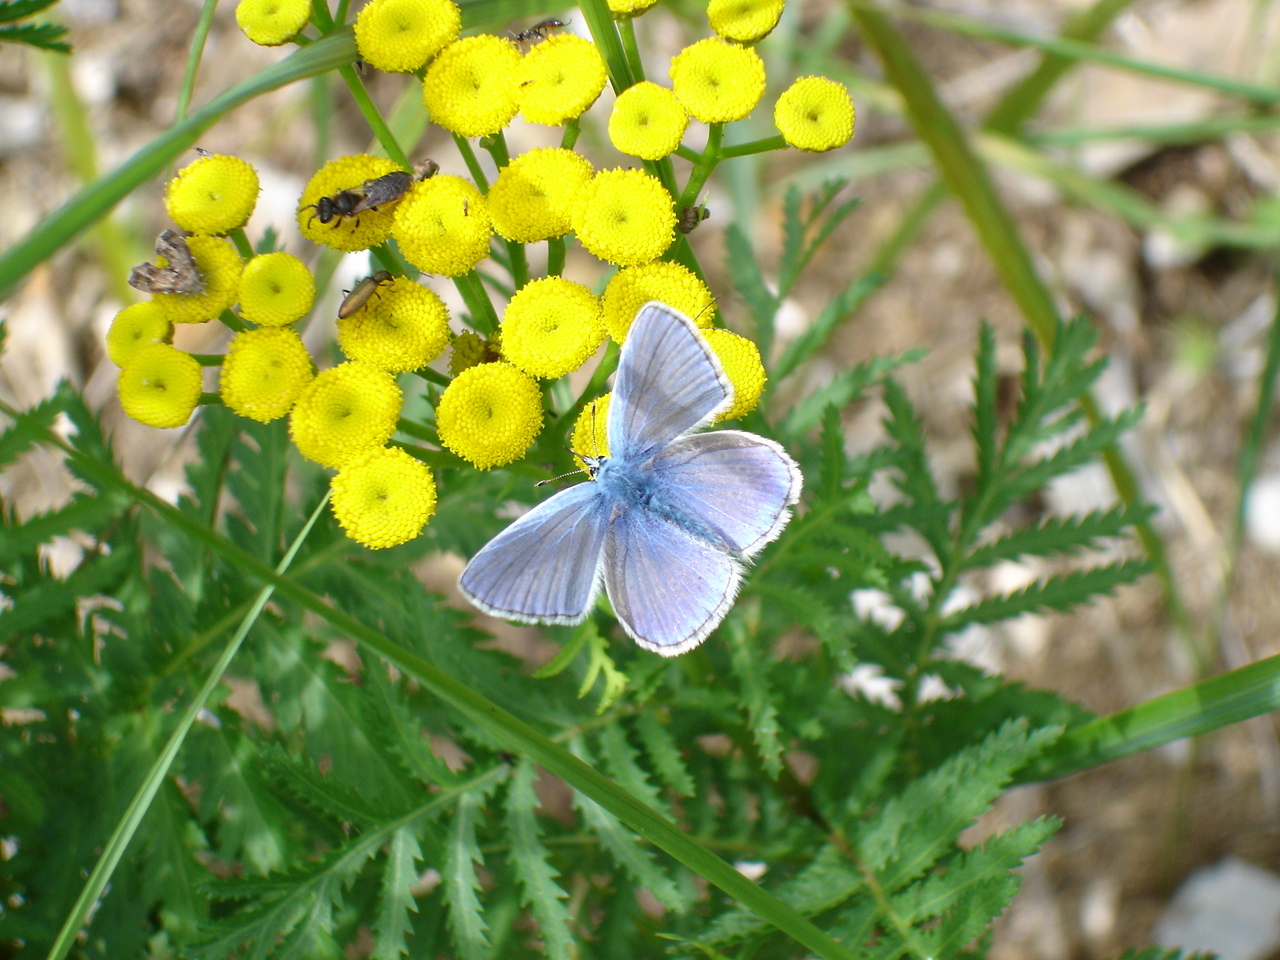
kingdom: Animalia
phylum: Arthropoda
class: Insecta
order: Lepidoptera
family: Lycaenidae
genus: Polyommatus
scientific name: Polyommatus icarus
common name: Common blue
